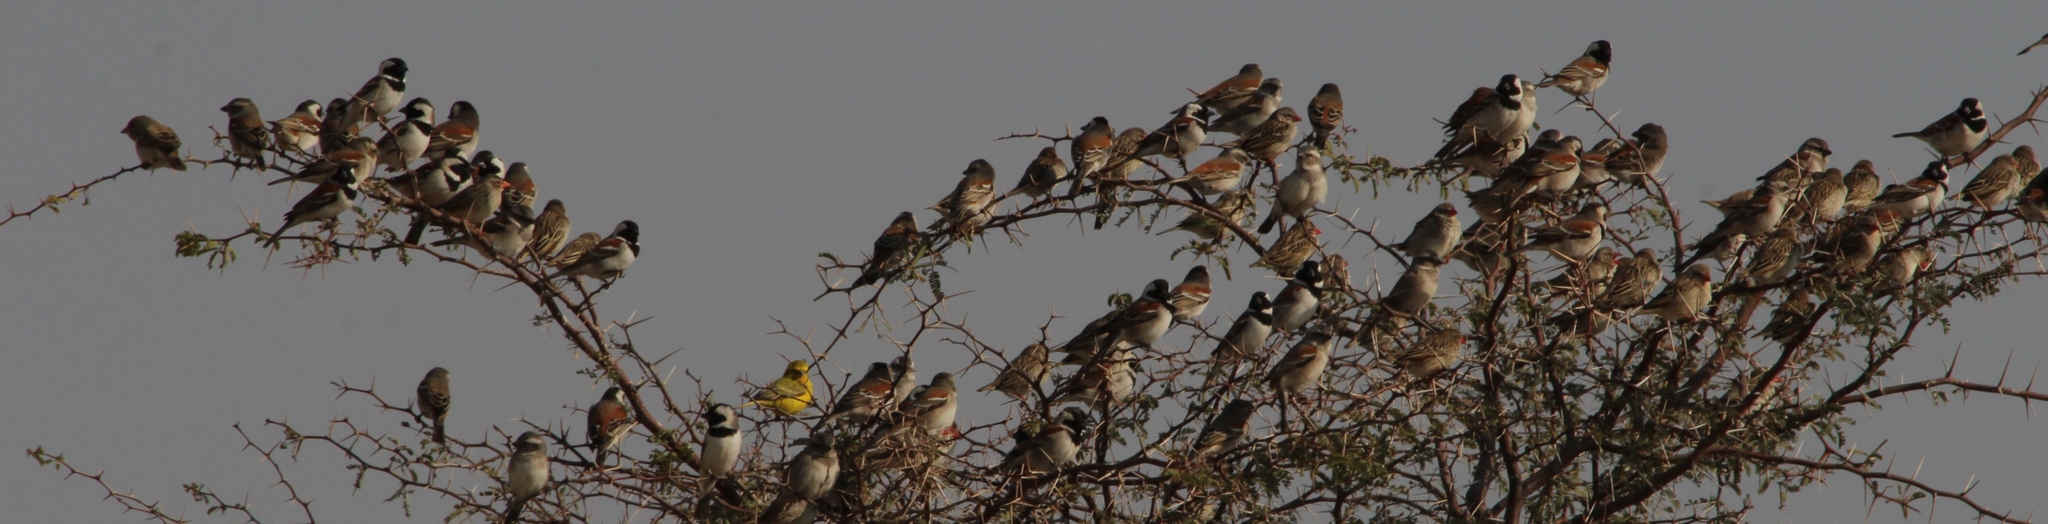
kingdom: Animalia
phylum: Chordata
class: Aves
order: Passeriformes
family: Passeridae
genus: Passer
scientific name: Passer melanurus
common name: Cape sparrow
